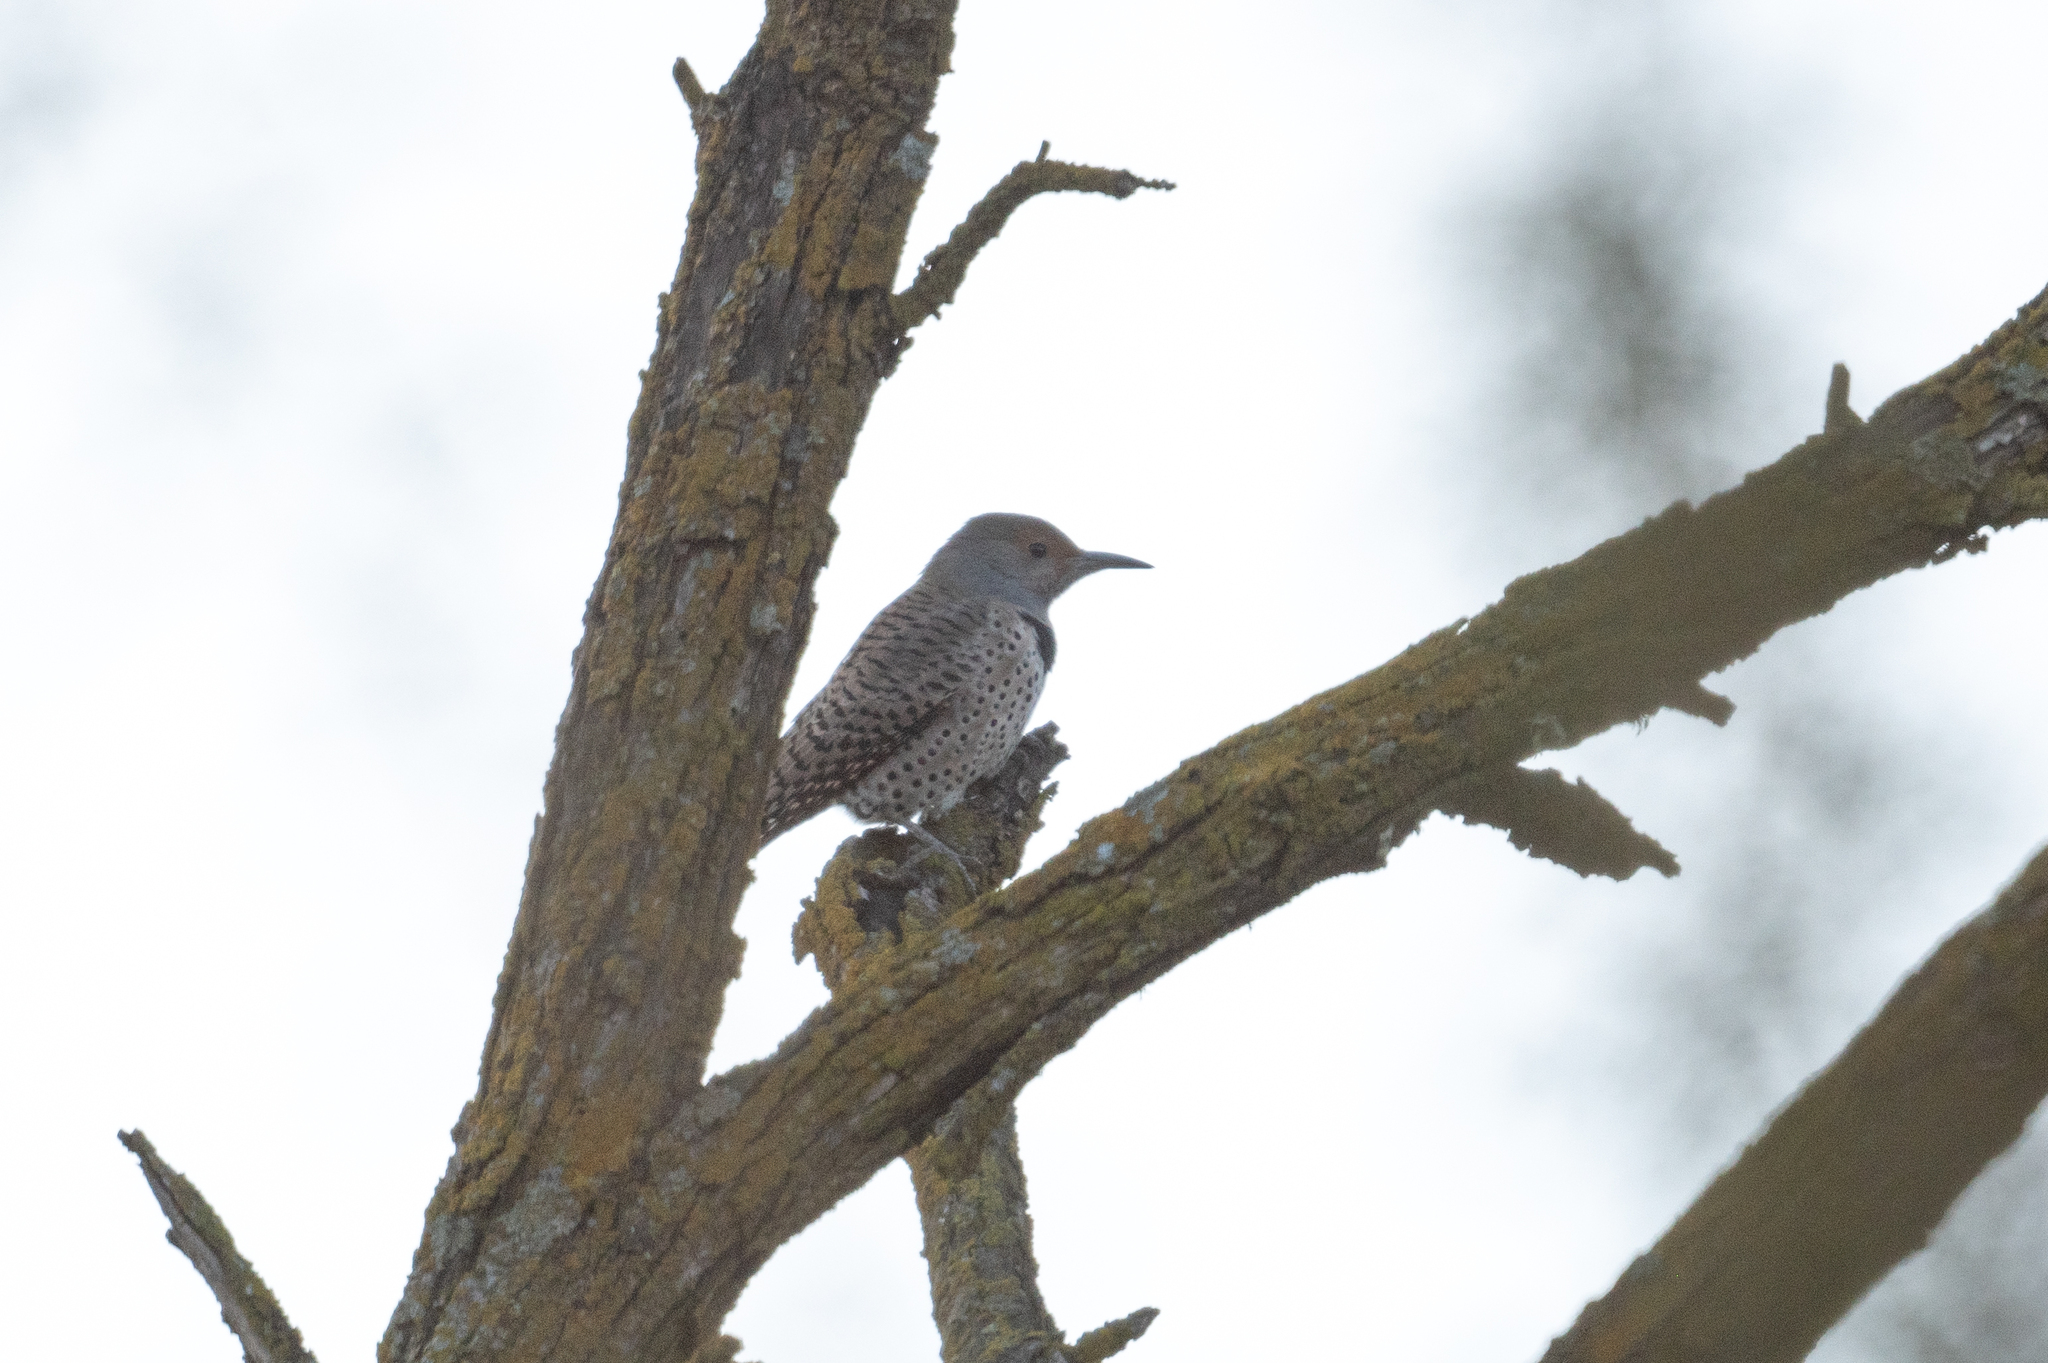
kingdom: Animalia
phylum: Chordata
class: Aves
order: Piciformes
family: Picidae
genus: Colaptes
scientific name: Colaptes auratus
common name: Northern flicker
